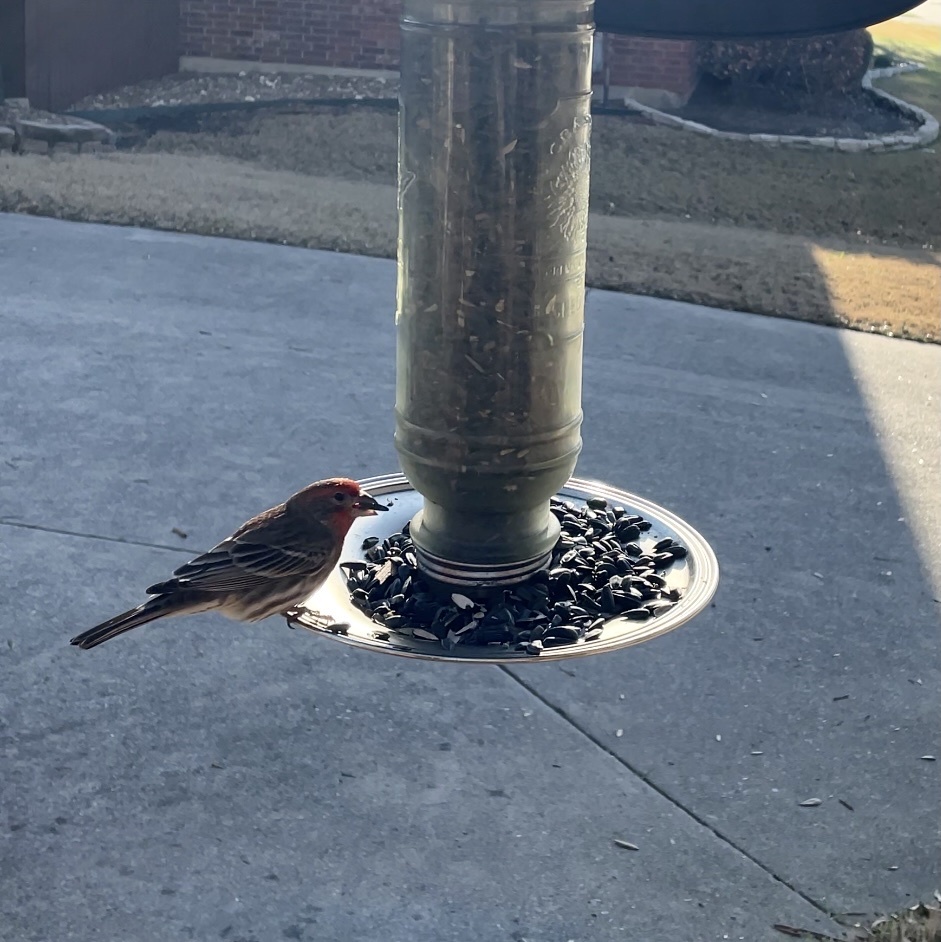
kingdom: Animalia
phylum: Chordata
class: Aves
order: Passeriformes
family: Fringillidae
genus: Haemorhous
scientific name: Haemorhous mexicanus
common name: House finch
